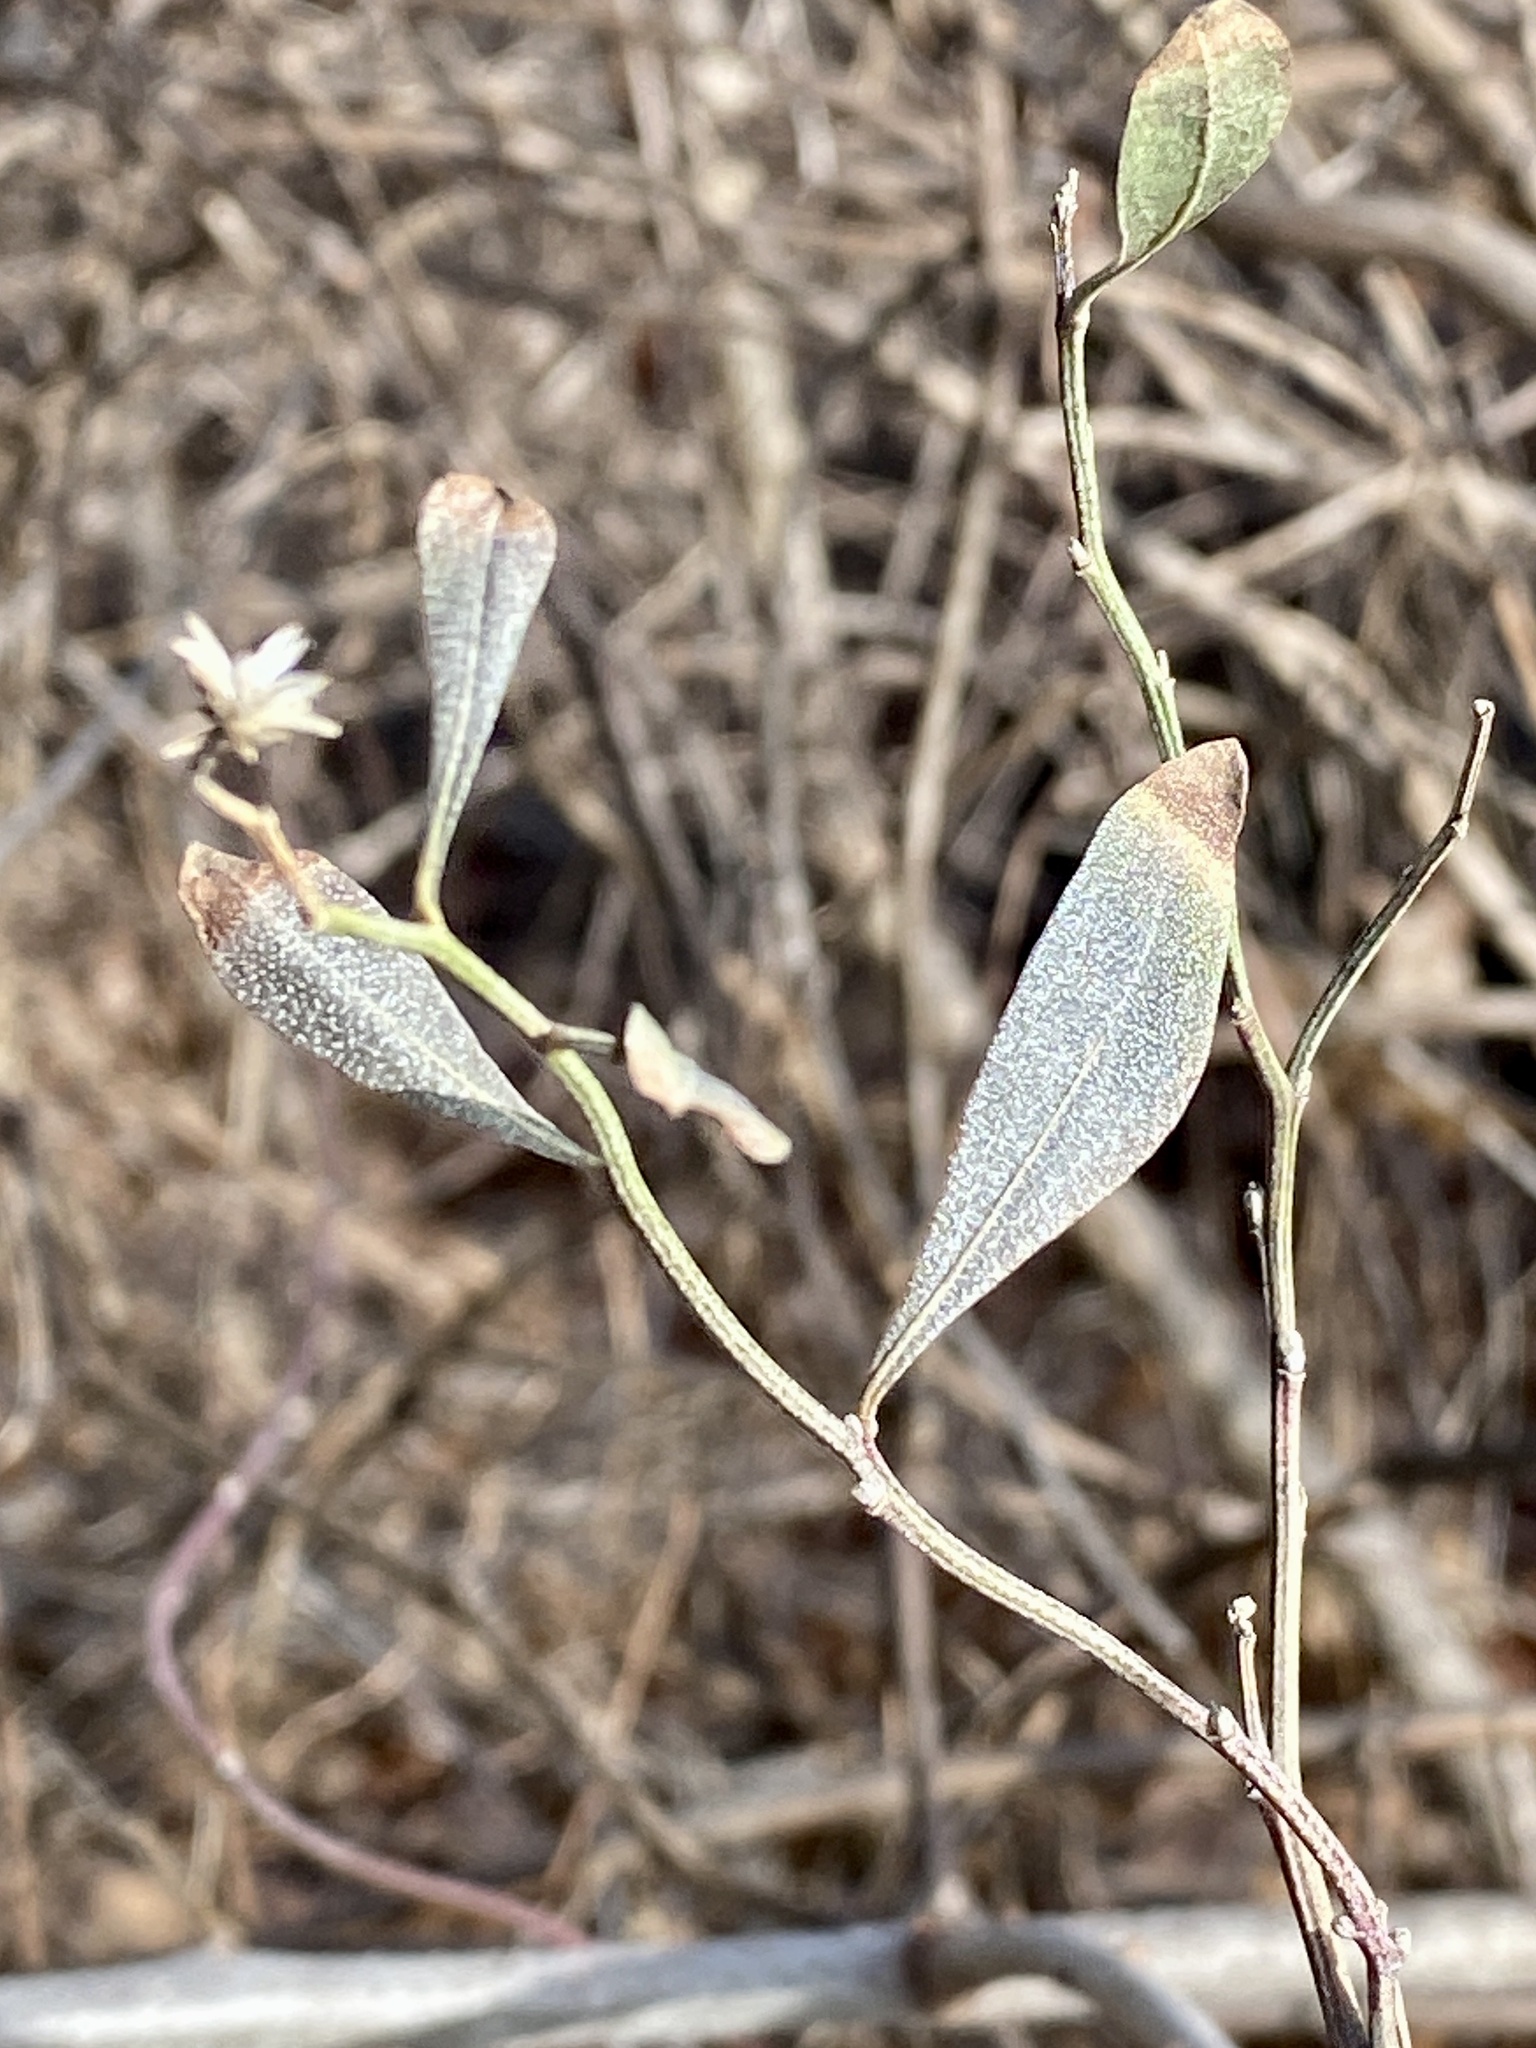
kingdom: Plantae
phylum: Tracheophyta
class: Magnoliopsida
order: Asterales
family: Asteraceae
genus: Baccharis
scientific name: Baccharis halimifolia
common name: Eastern baccharis
